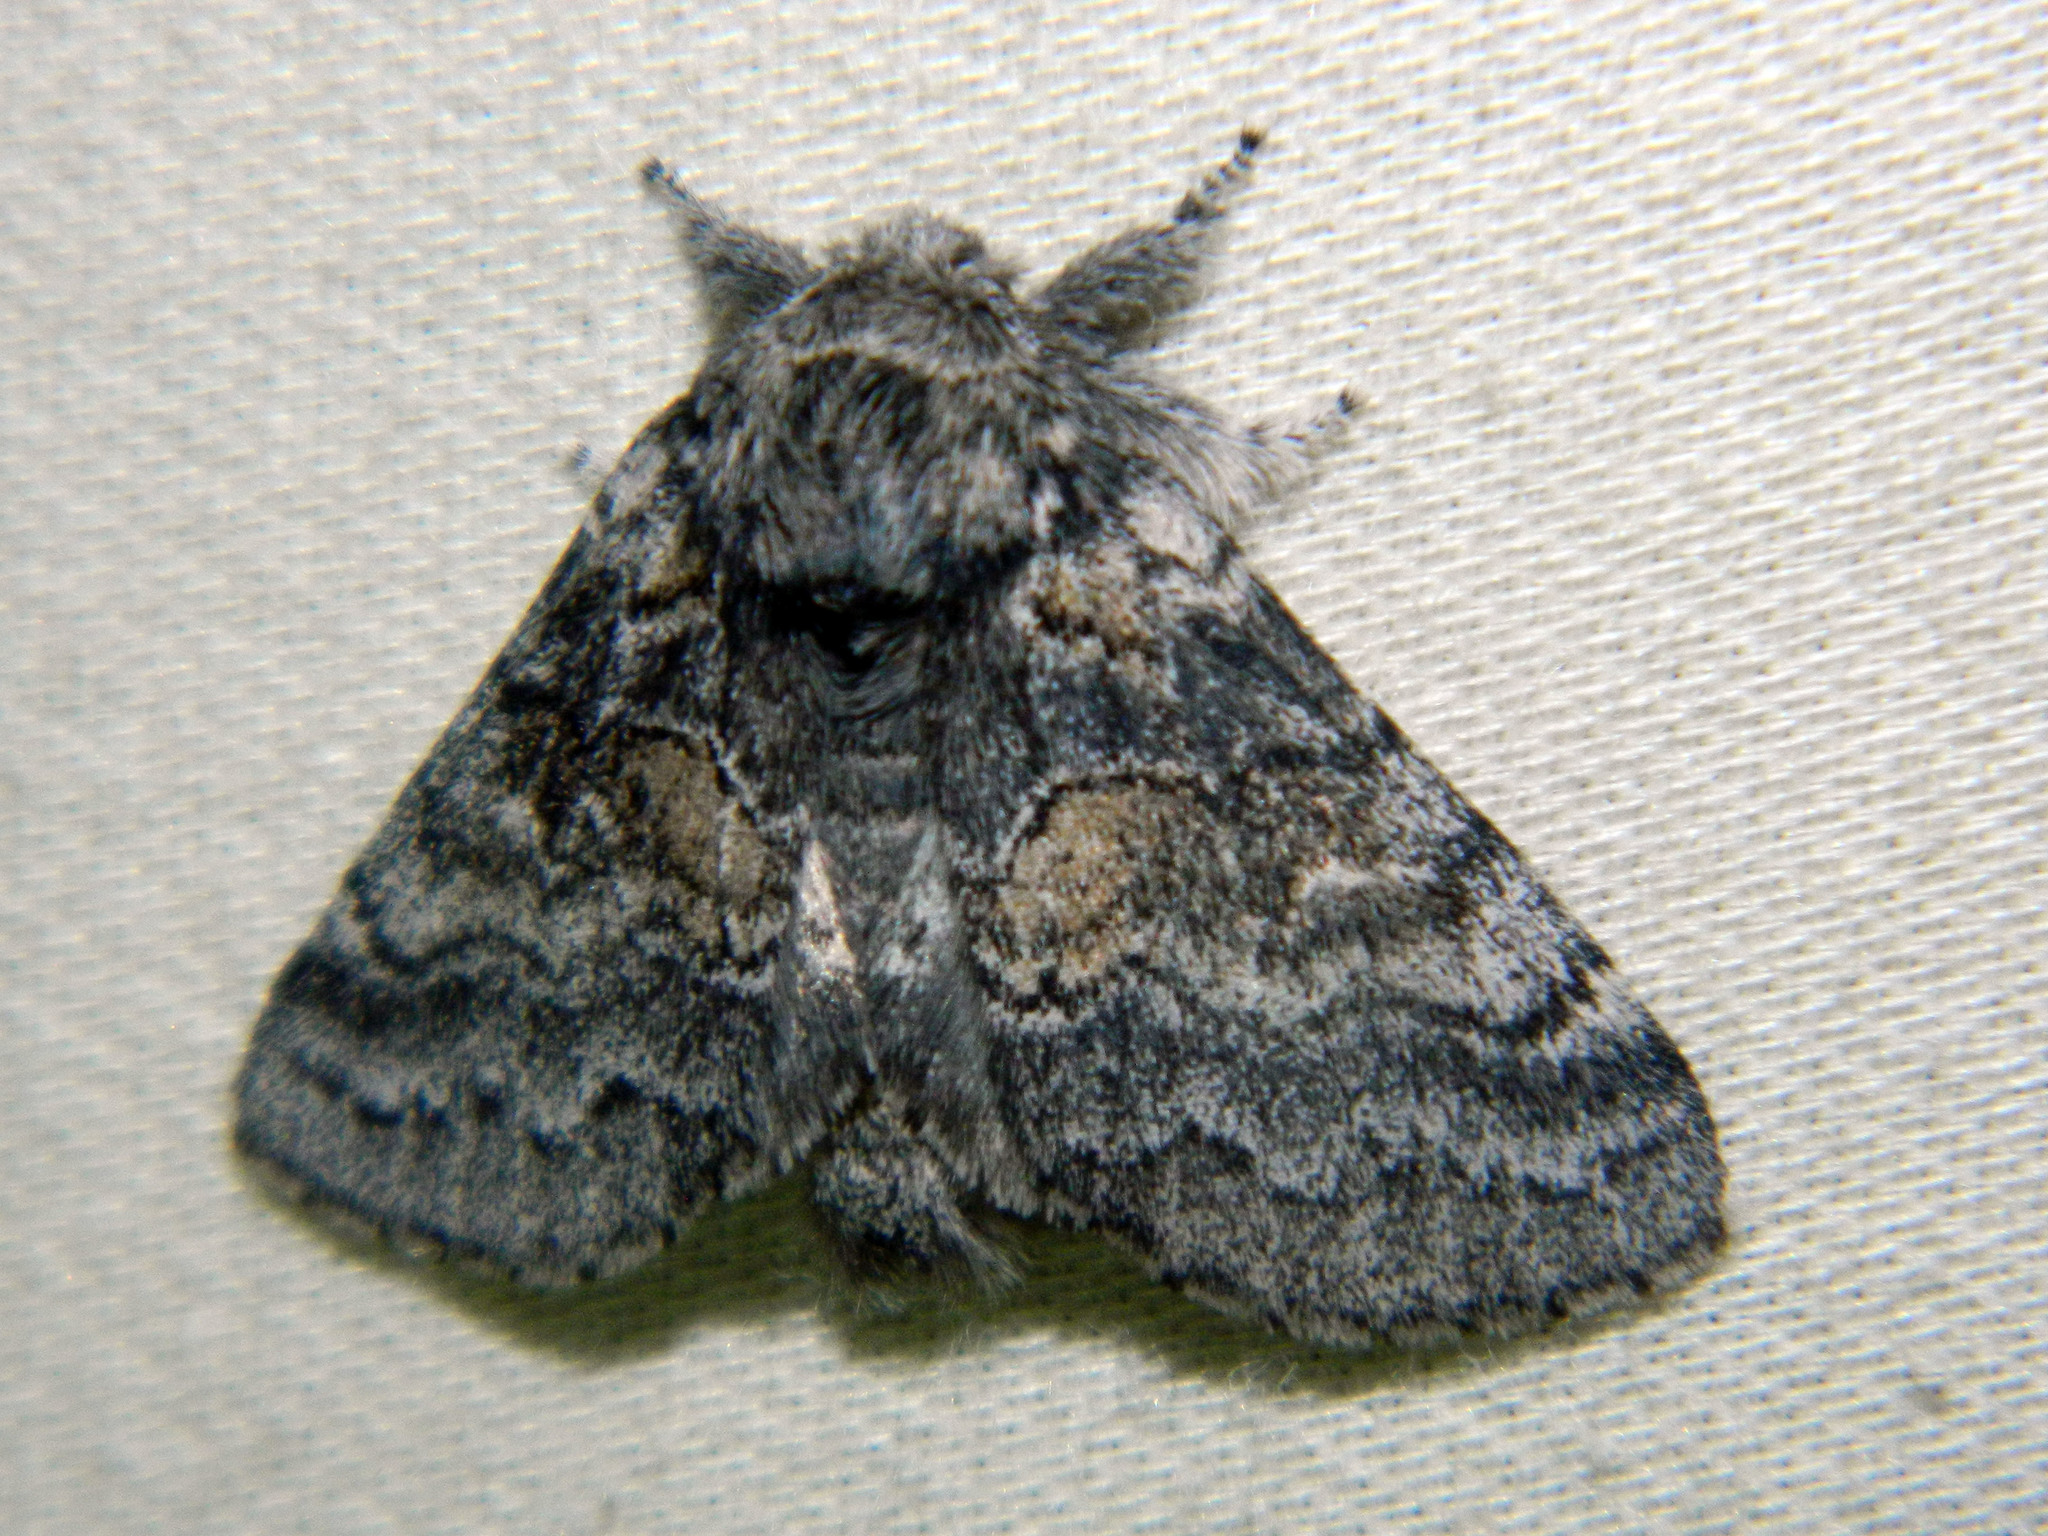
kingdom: Animalia
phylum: Arthropoda
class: Insecta
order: Lepidoptera
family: Notodontidae
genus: Gluphisia
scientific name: Gluphisia septentrionis
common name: Common gluphisia
